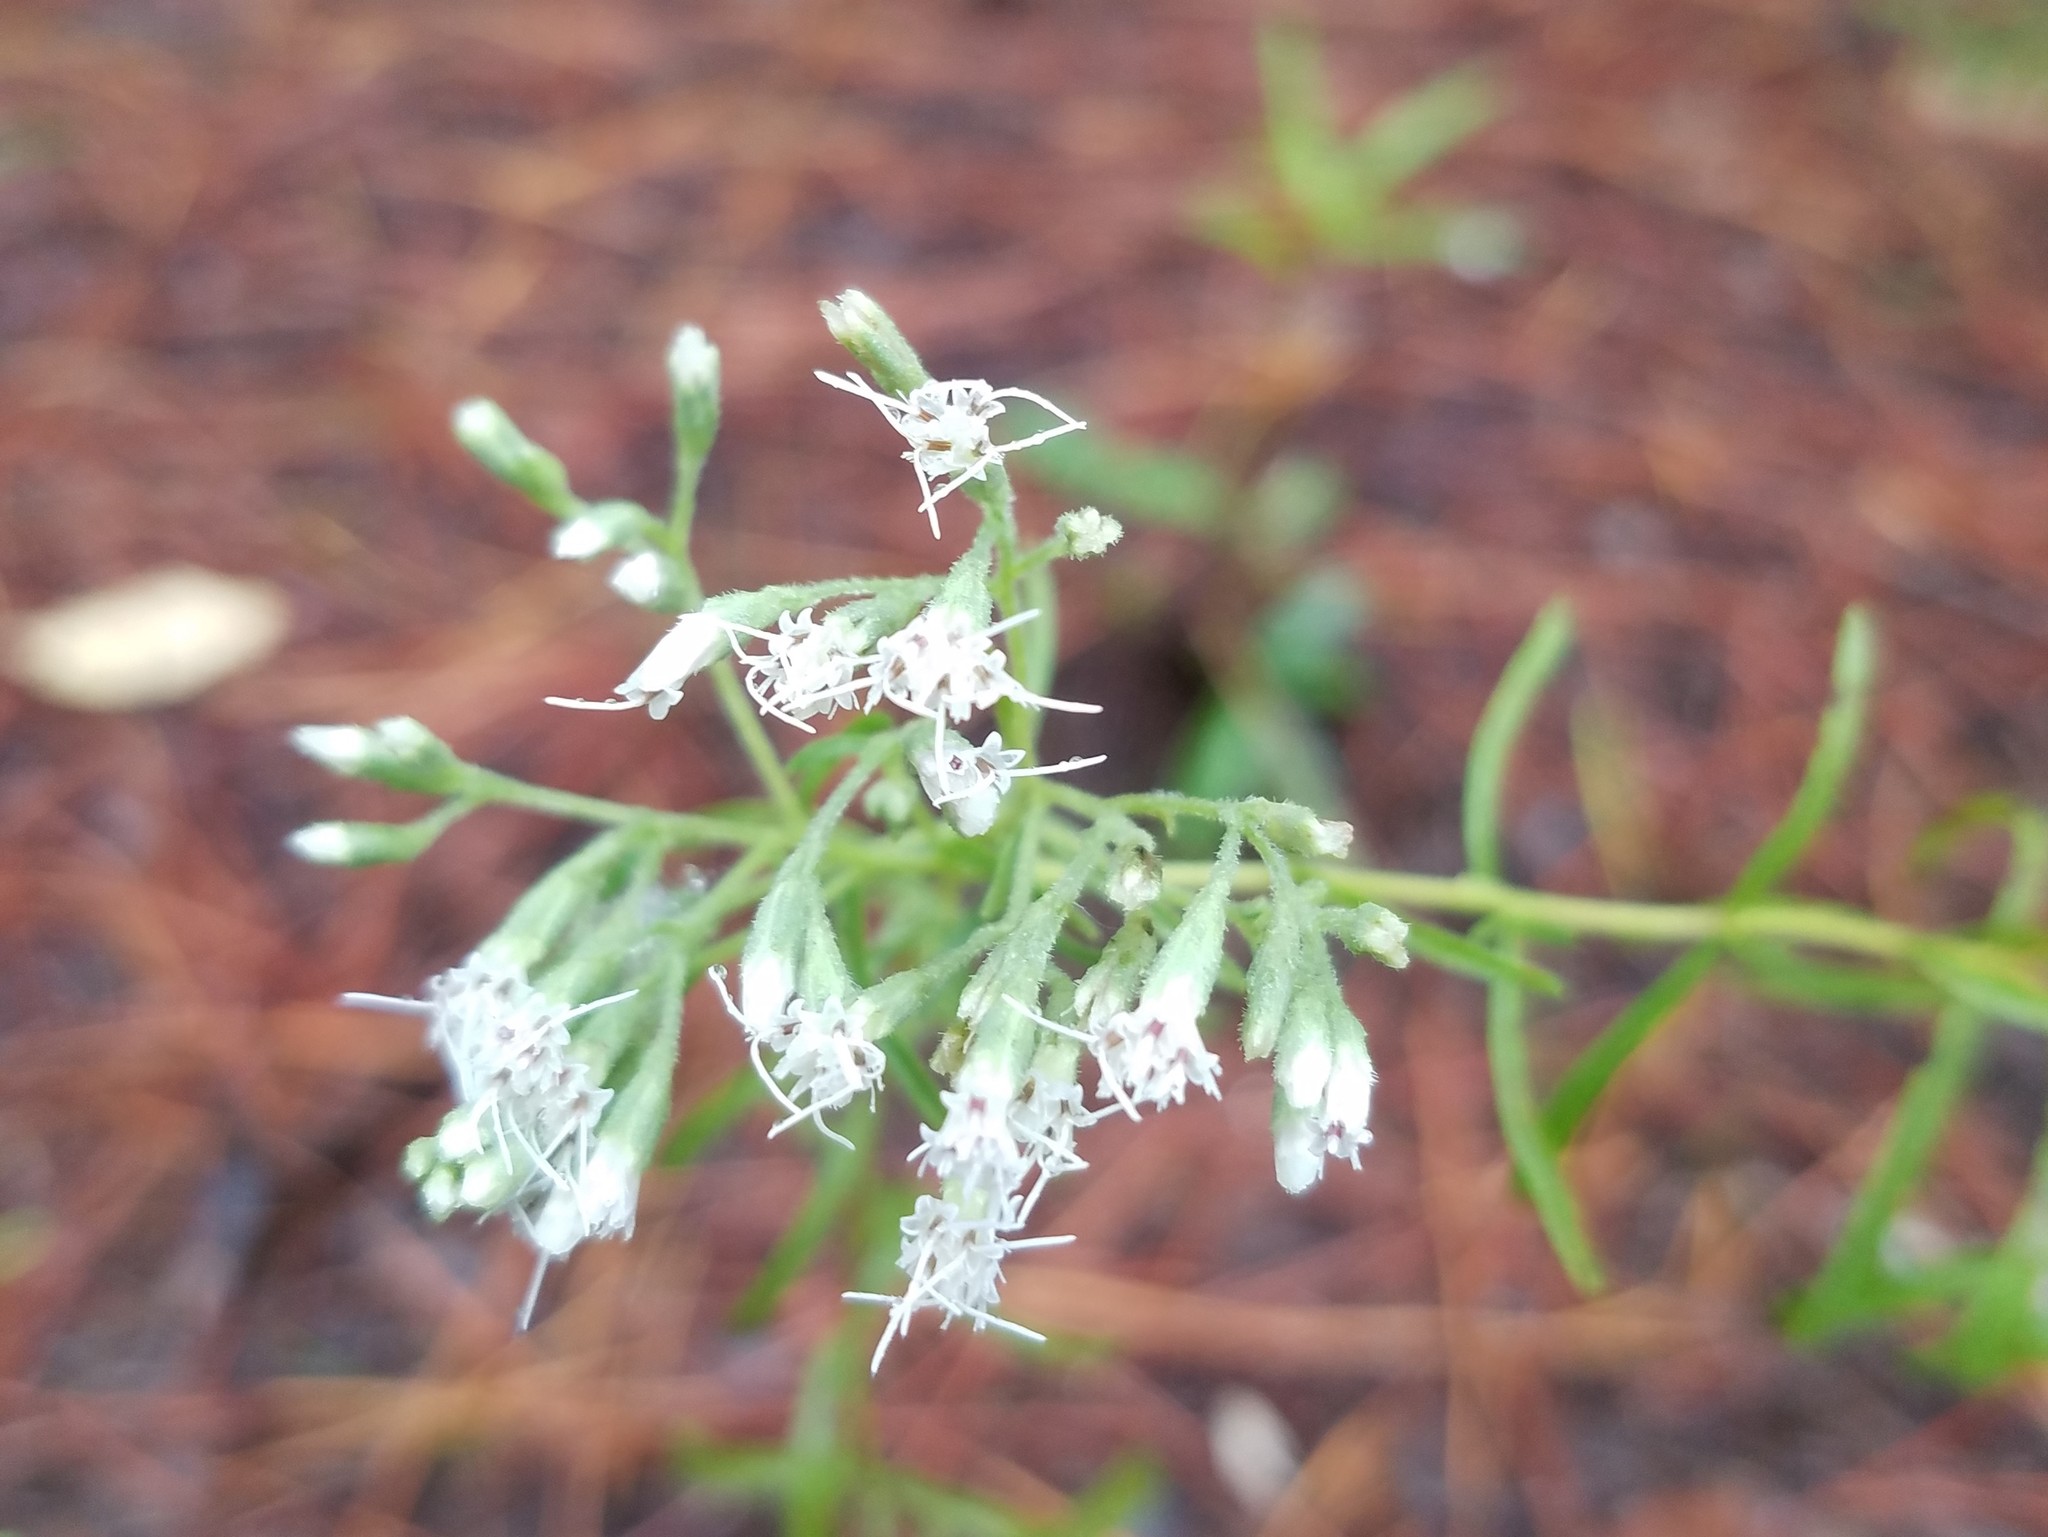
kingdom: Plantae
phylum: Tracheophyta
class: Magnoliopsida
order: Asterales
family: Asteraceae
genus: Eupatorium
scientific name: Eupatorium hyssopifolium
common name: Hyssop-leaf thoroughwort
